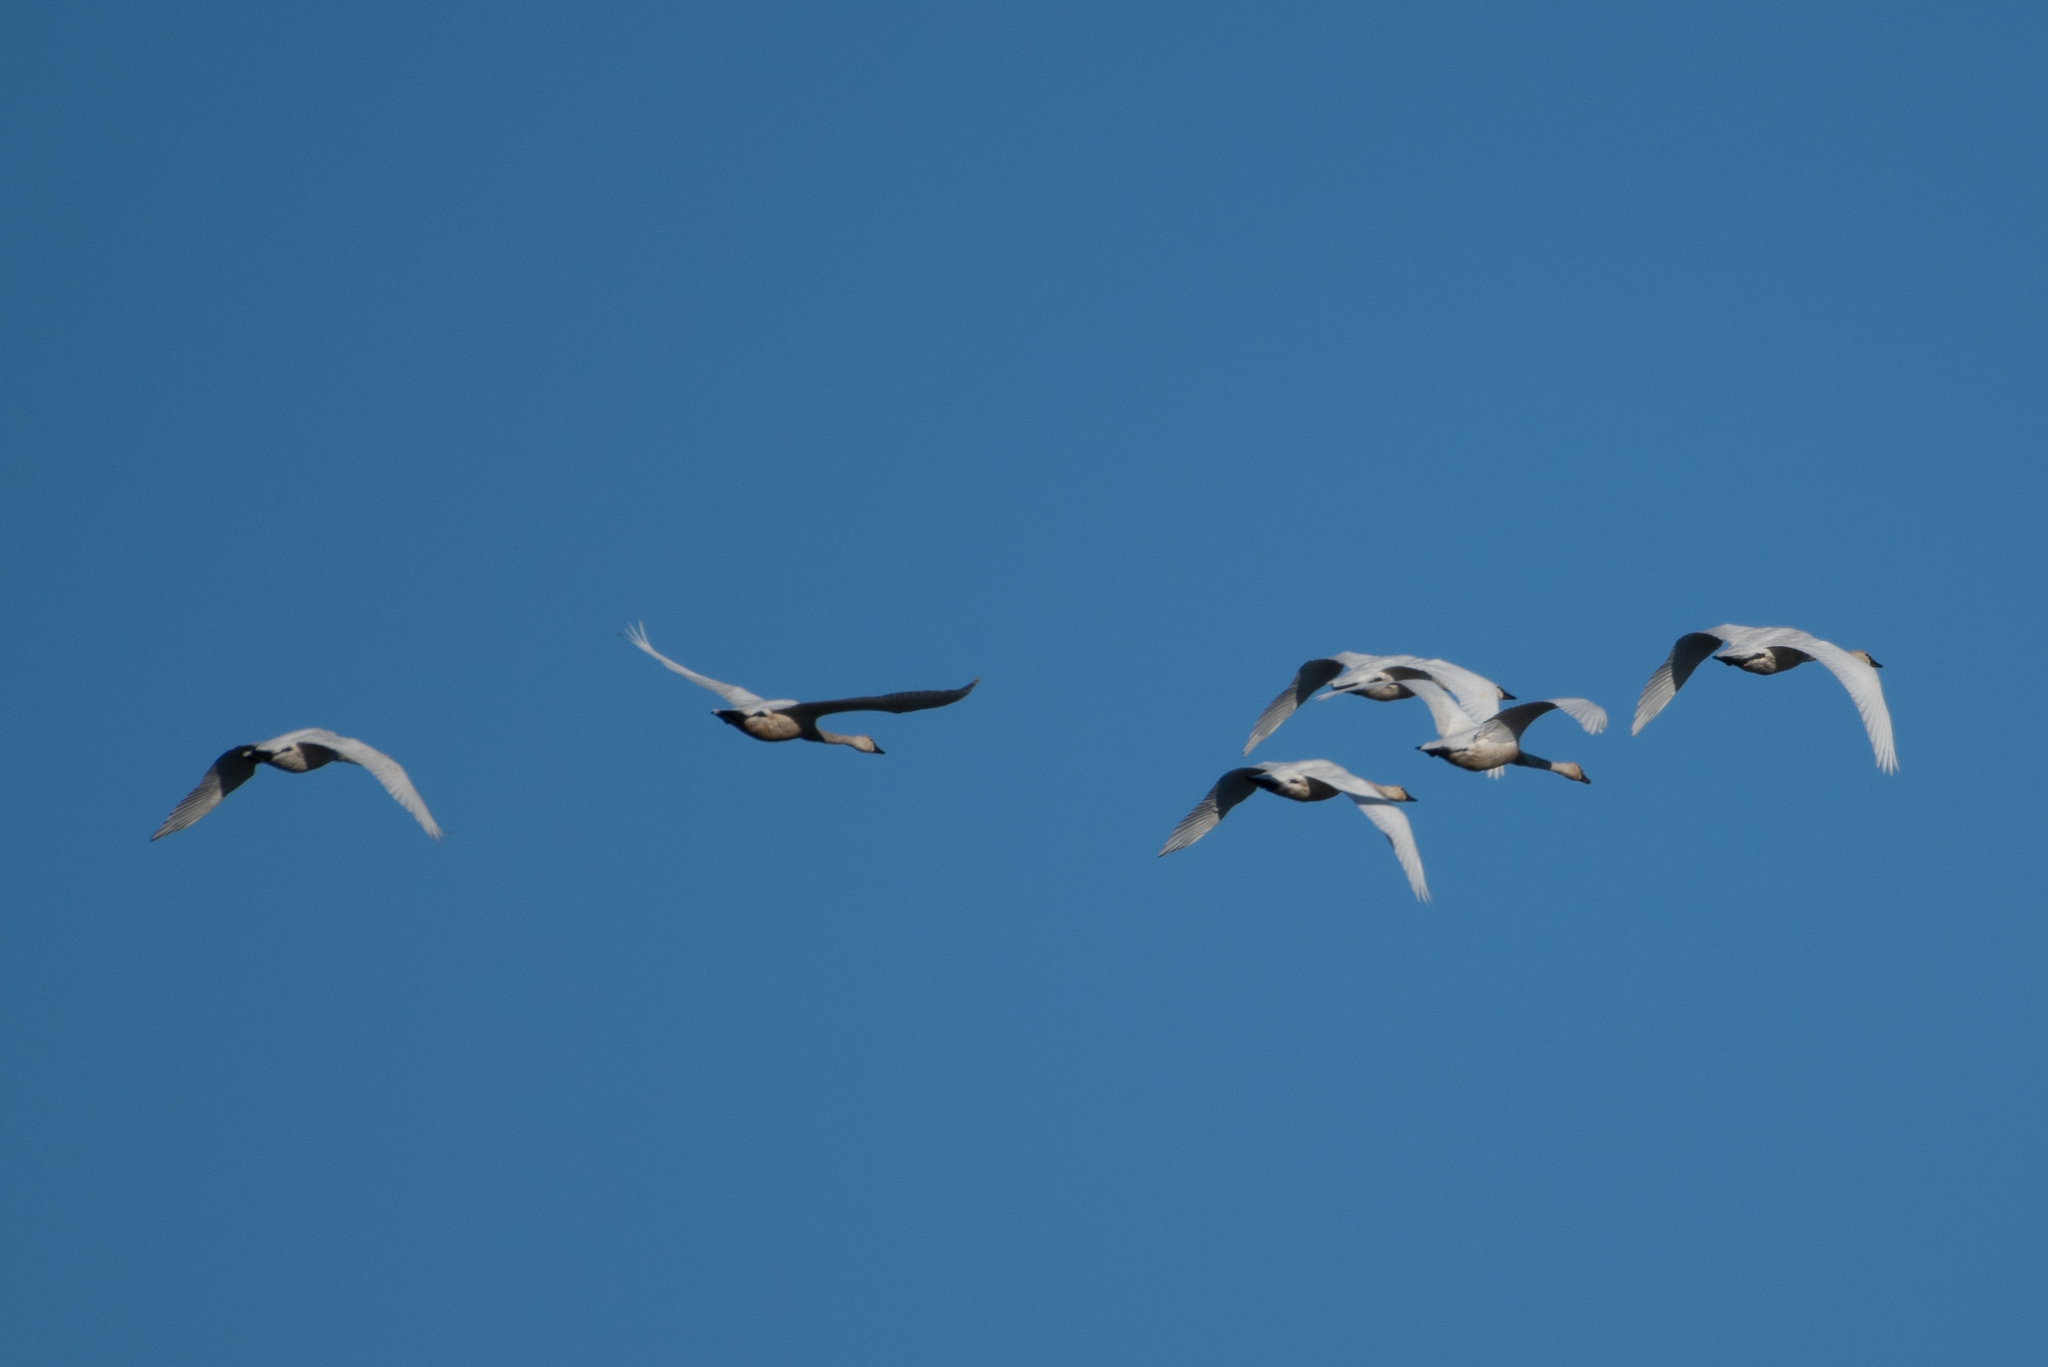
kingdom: Animalia
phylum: Chordata
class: Aves
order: Anseriformes
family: Anatidae
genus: Cygnus
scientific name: Cygnus columbianus
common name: Tundra swan
